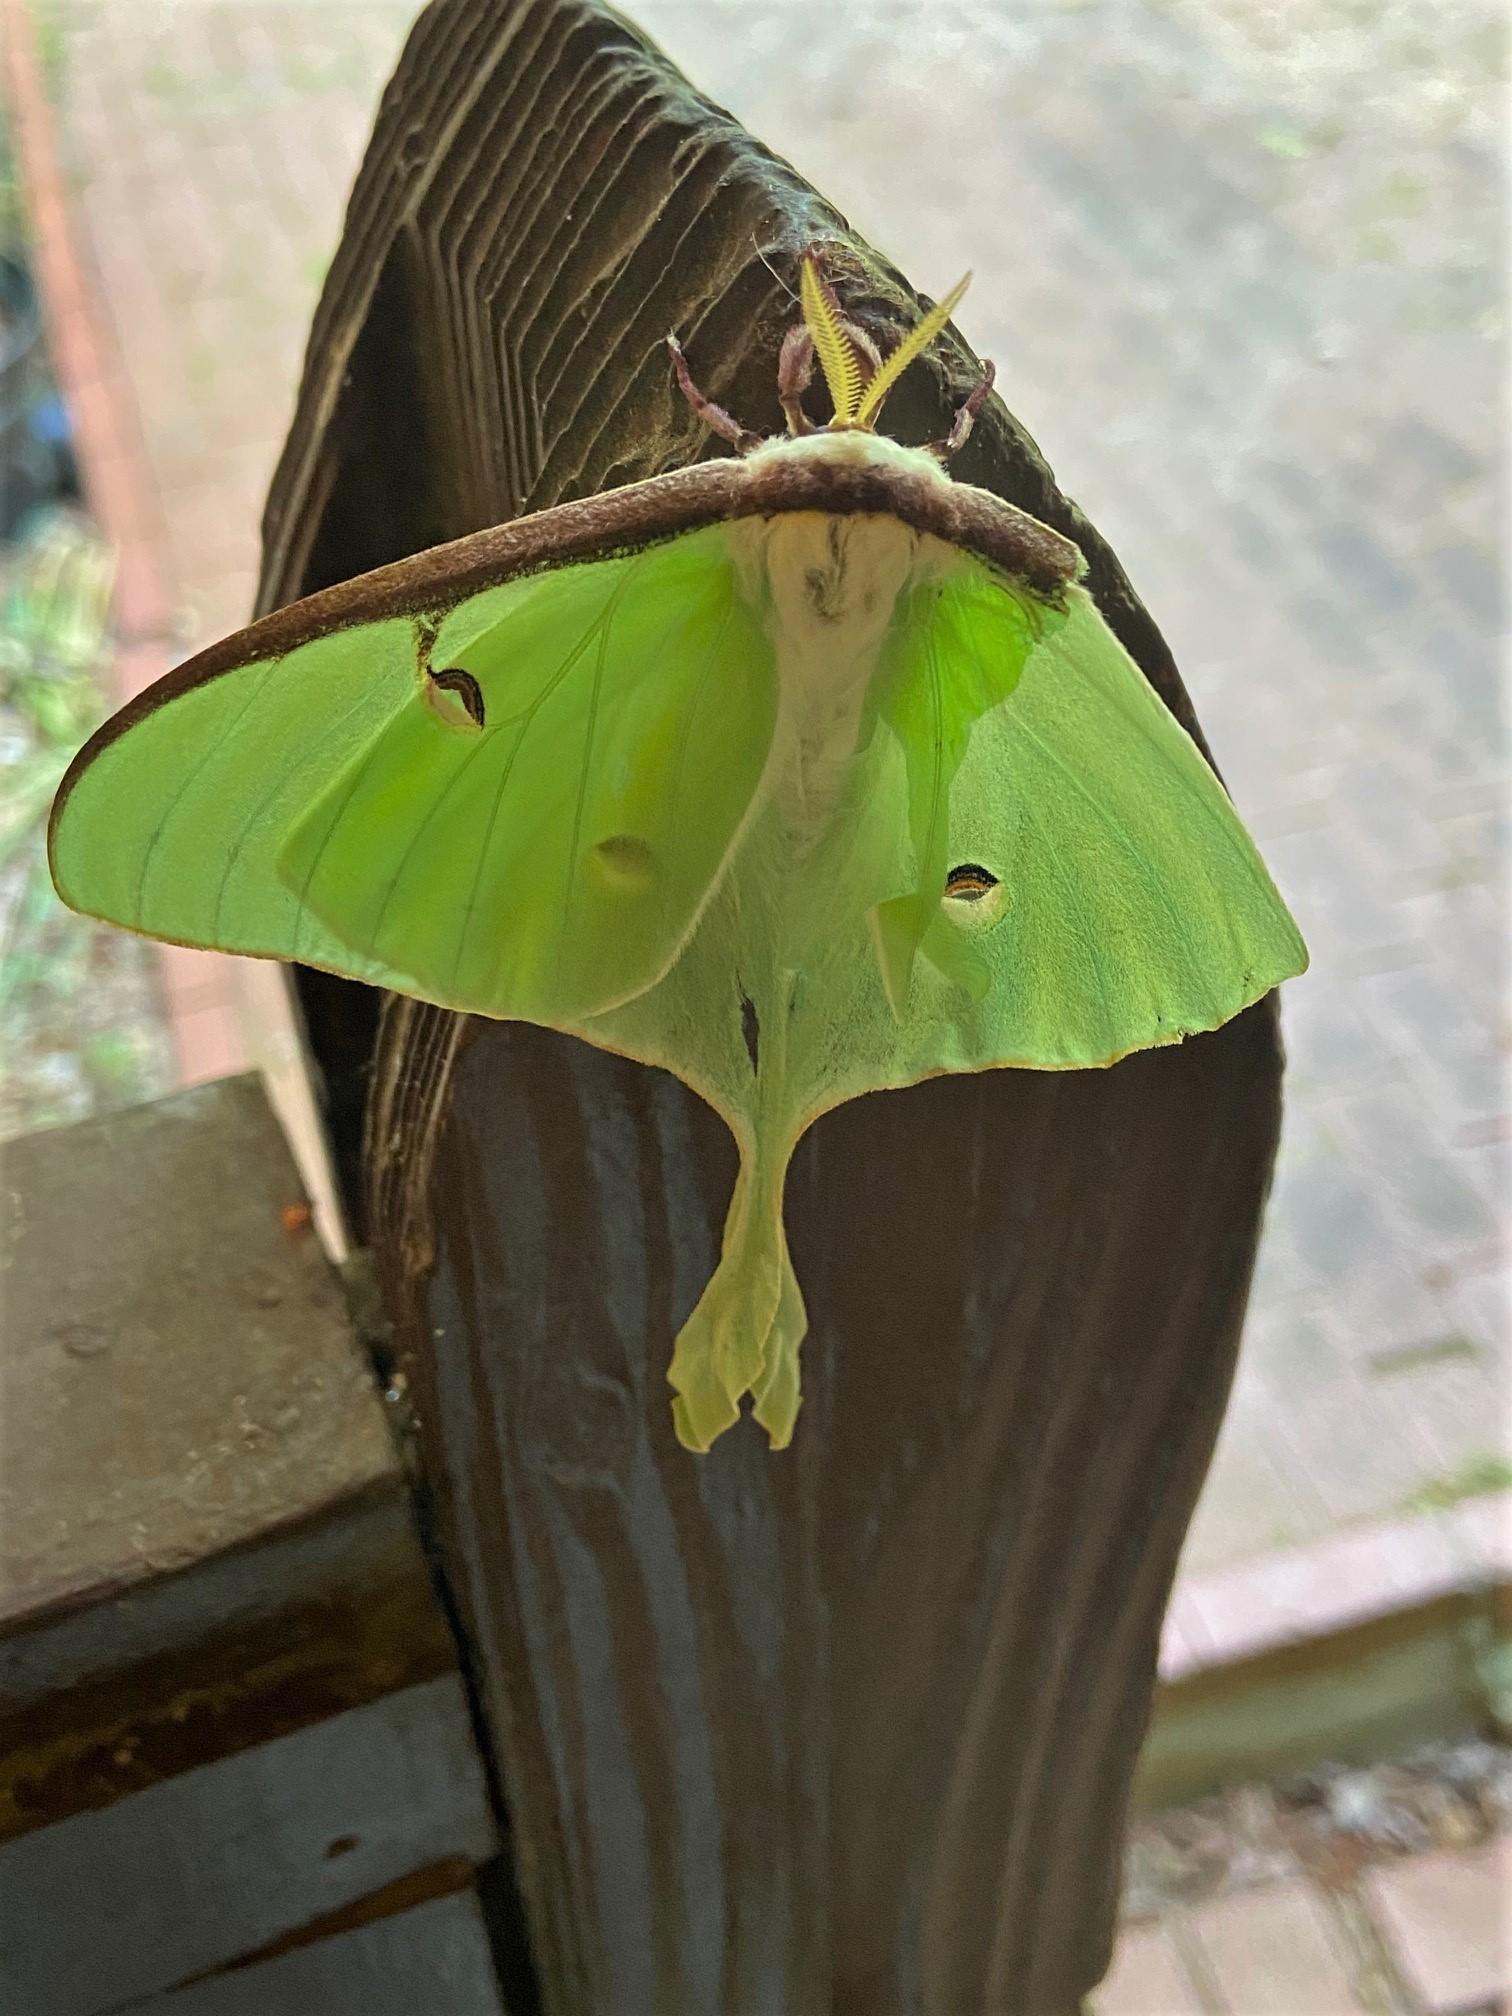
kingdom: Animalia
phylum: Arthropoda
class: Insecta
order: Lepidoptera
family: Saturniidae
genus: Actias
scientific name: Actias luna
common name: Luna moth
